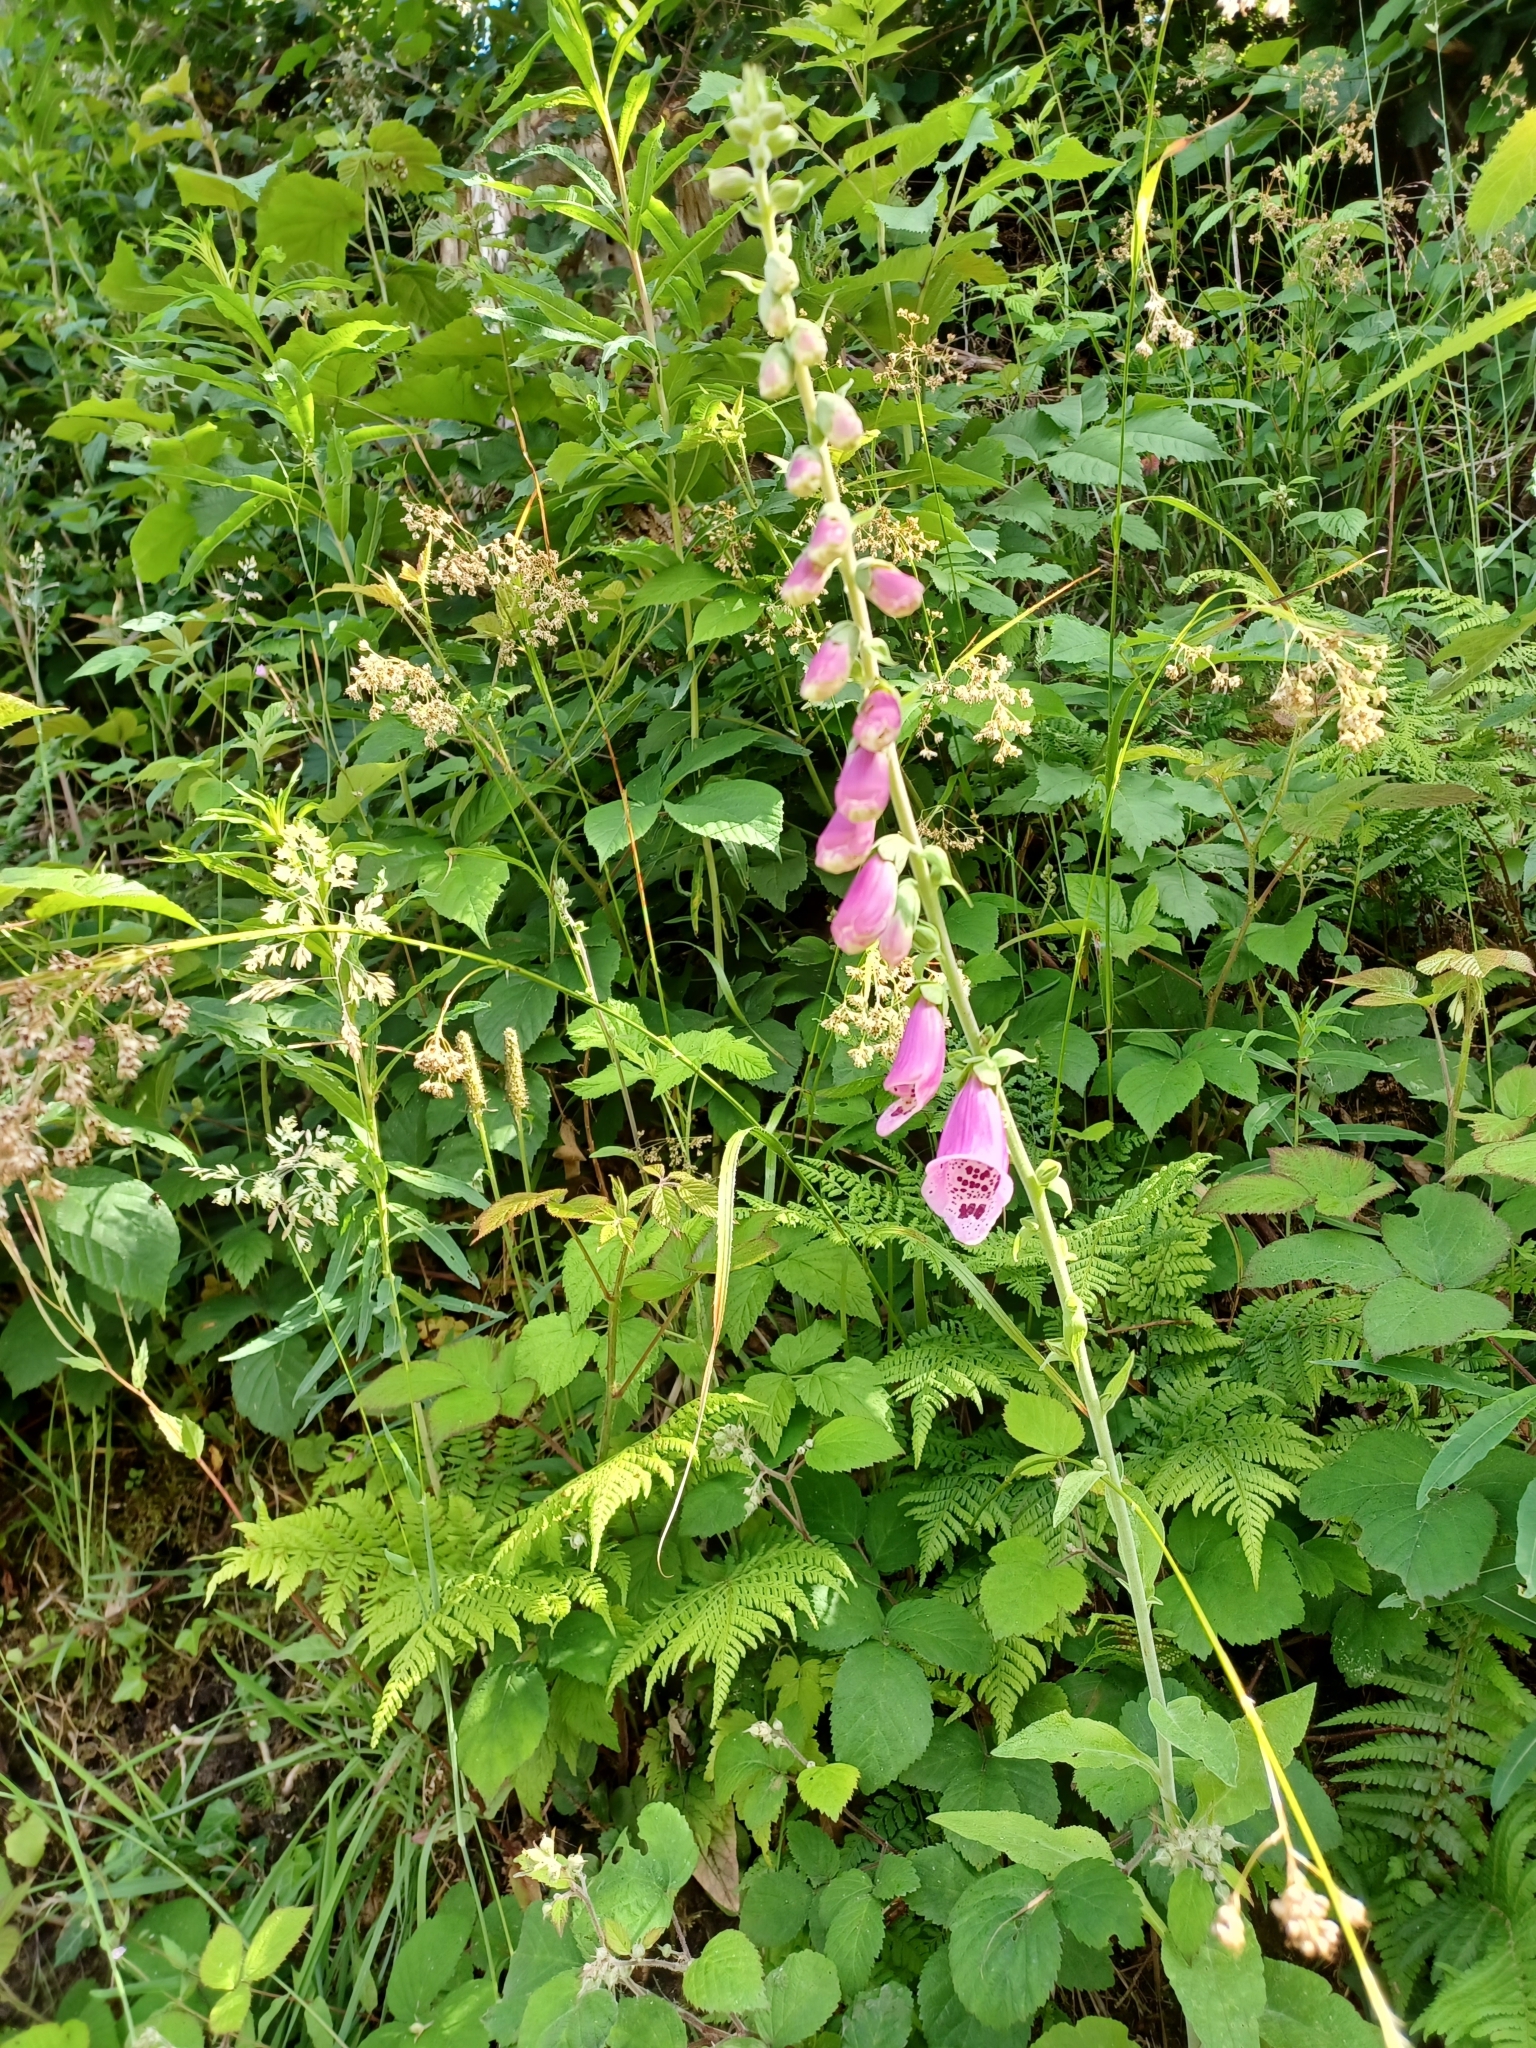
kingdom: Plantae
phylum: Tracheophyta
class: Magnoliopsida
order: Lamiales
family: Plantaginaceae
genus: Digitalis
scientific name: Digitalis purpurea
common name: Foxglove
